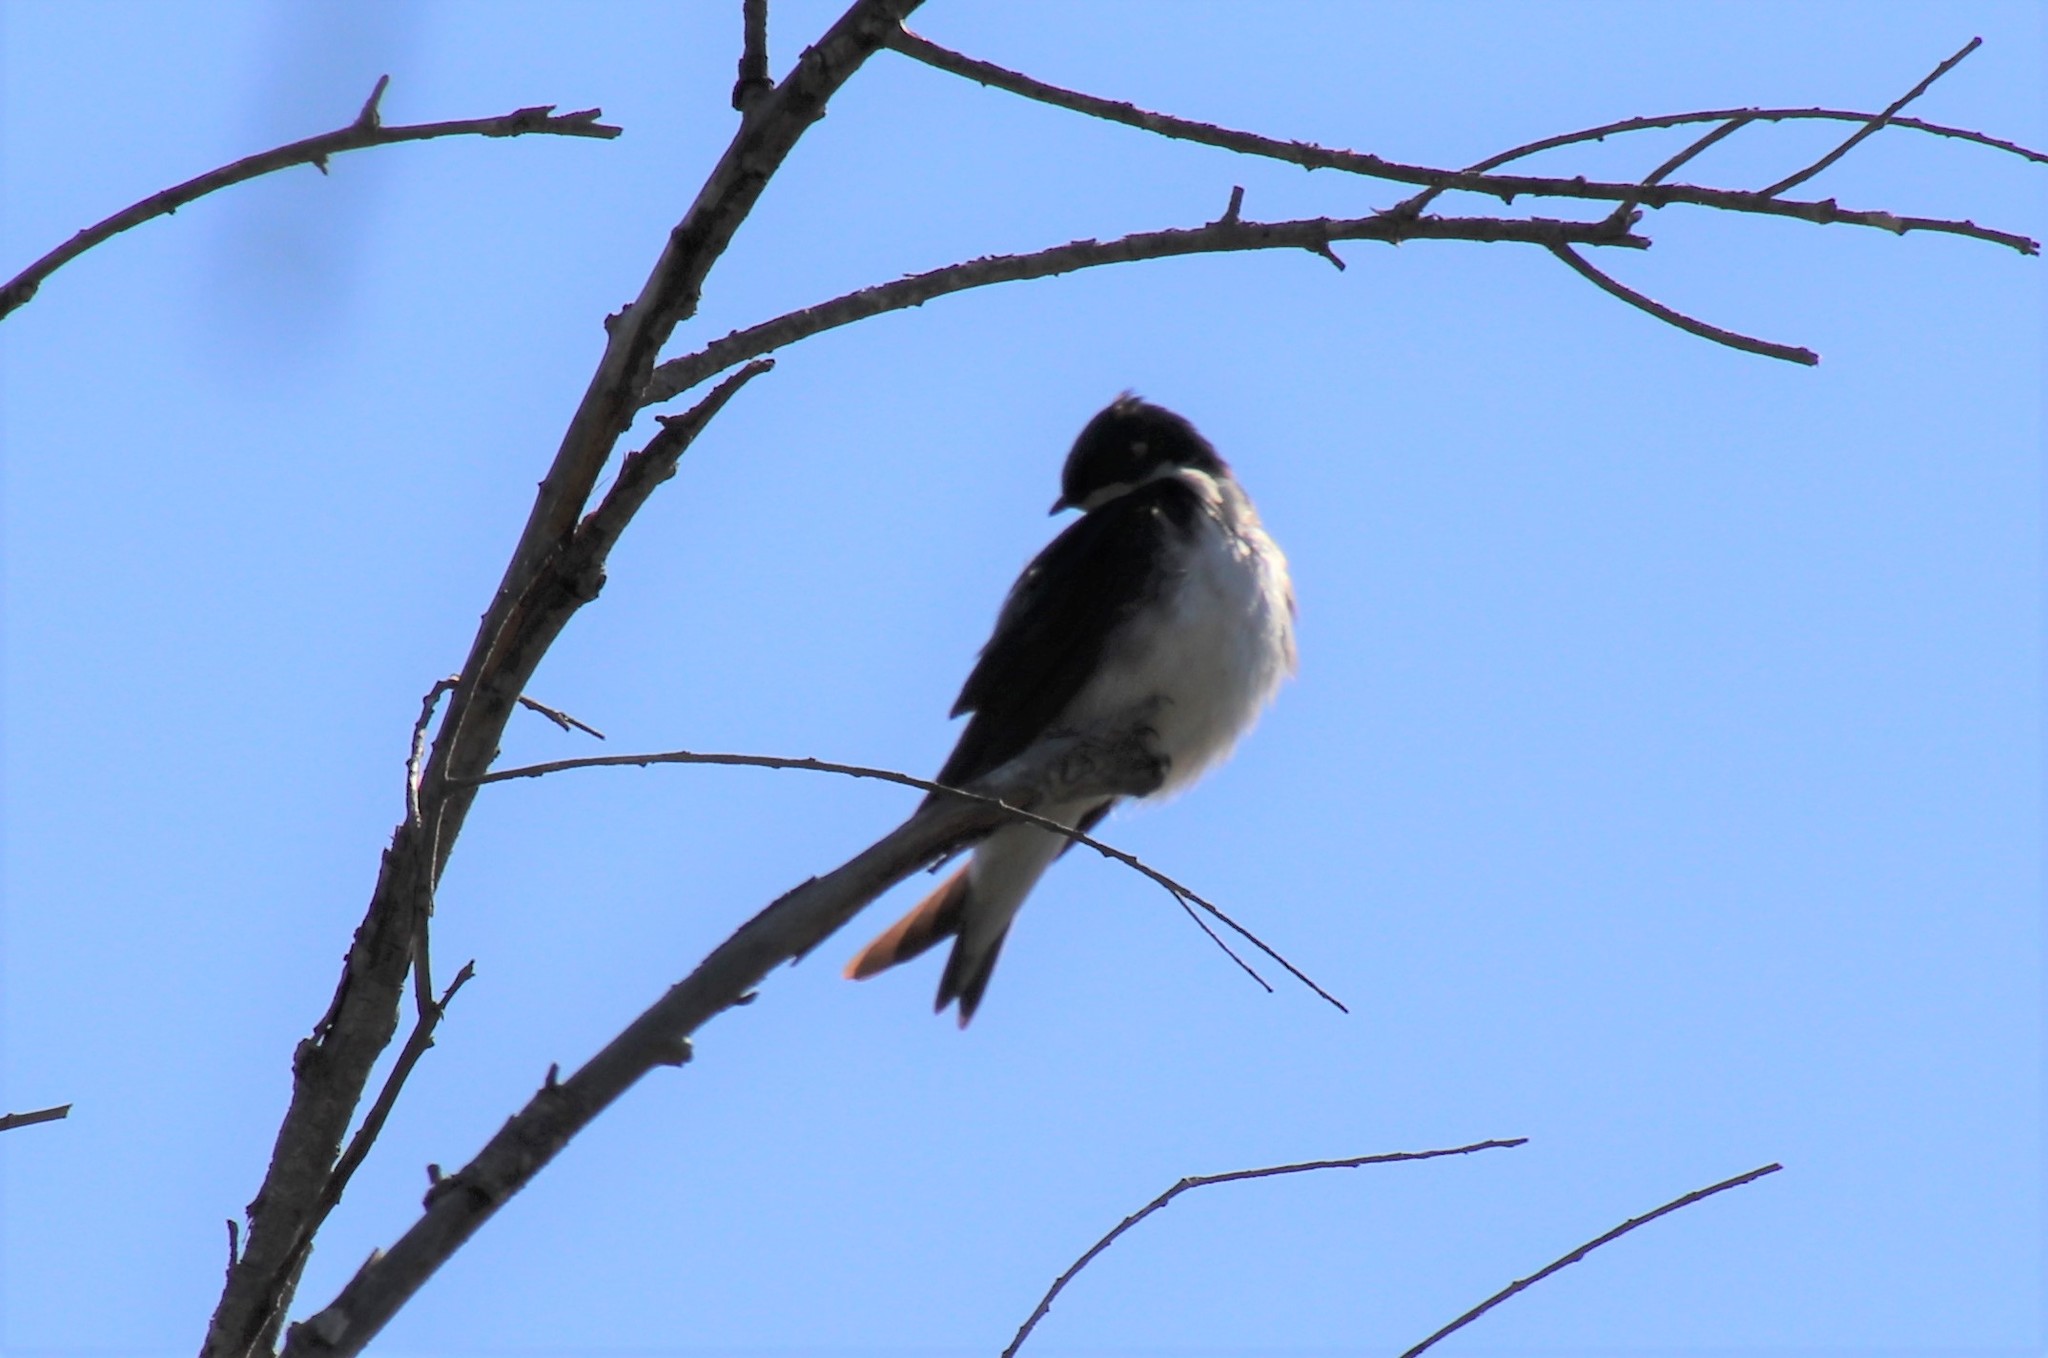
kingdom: Animalia
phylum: Chordata
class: Aves
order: Passeriformes
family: Hirundinidae
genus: Tachycineta
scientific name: Tachycineta bicolor
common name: Tree swallow
